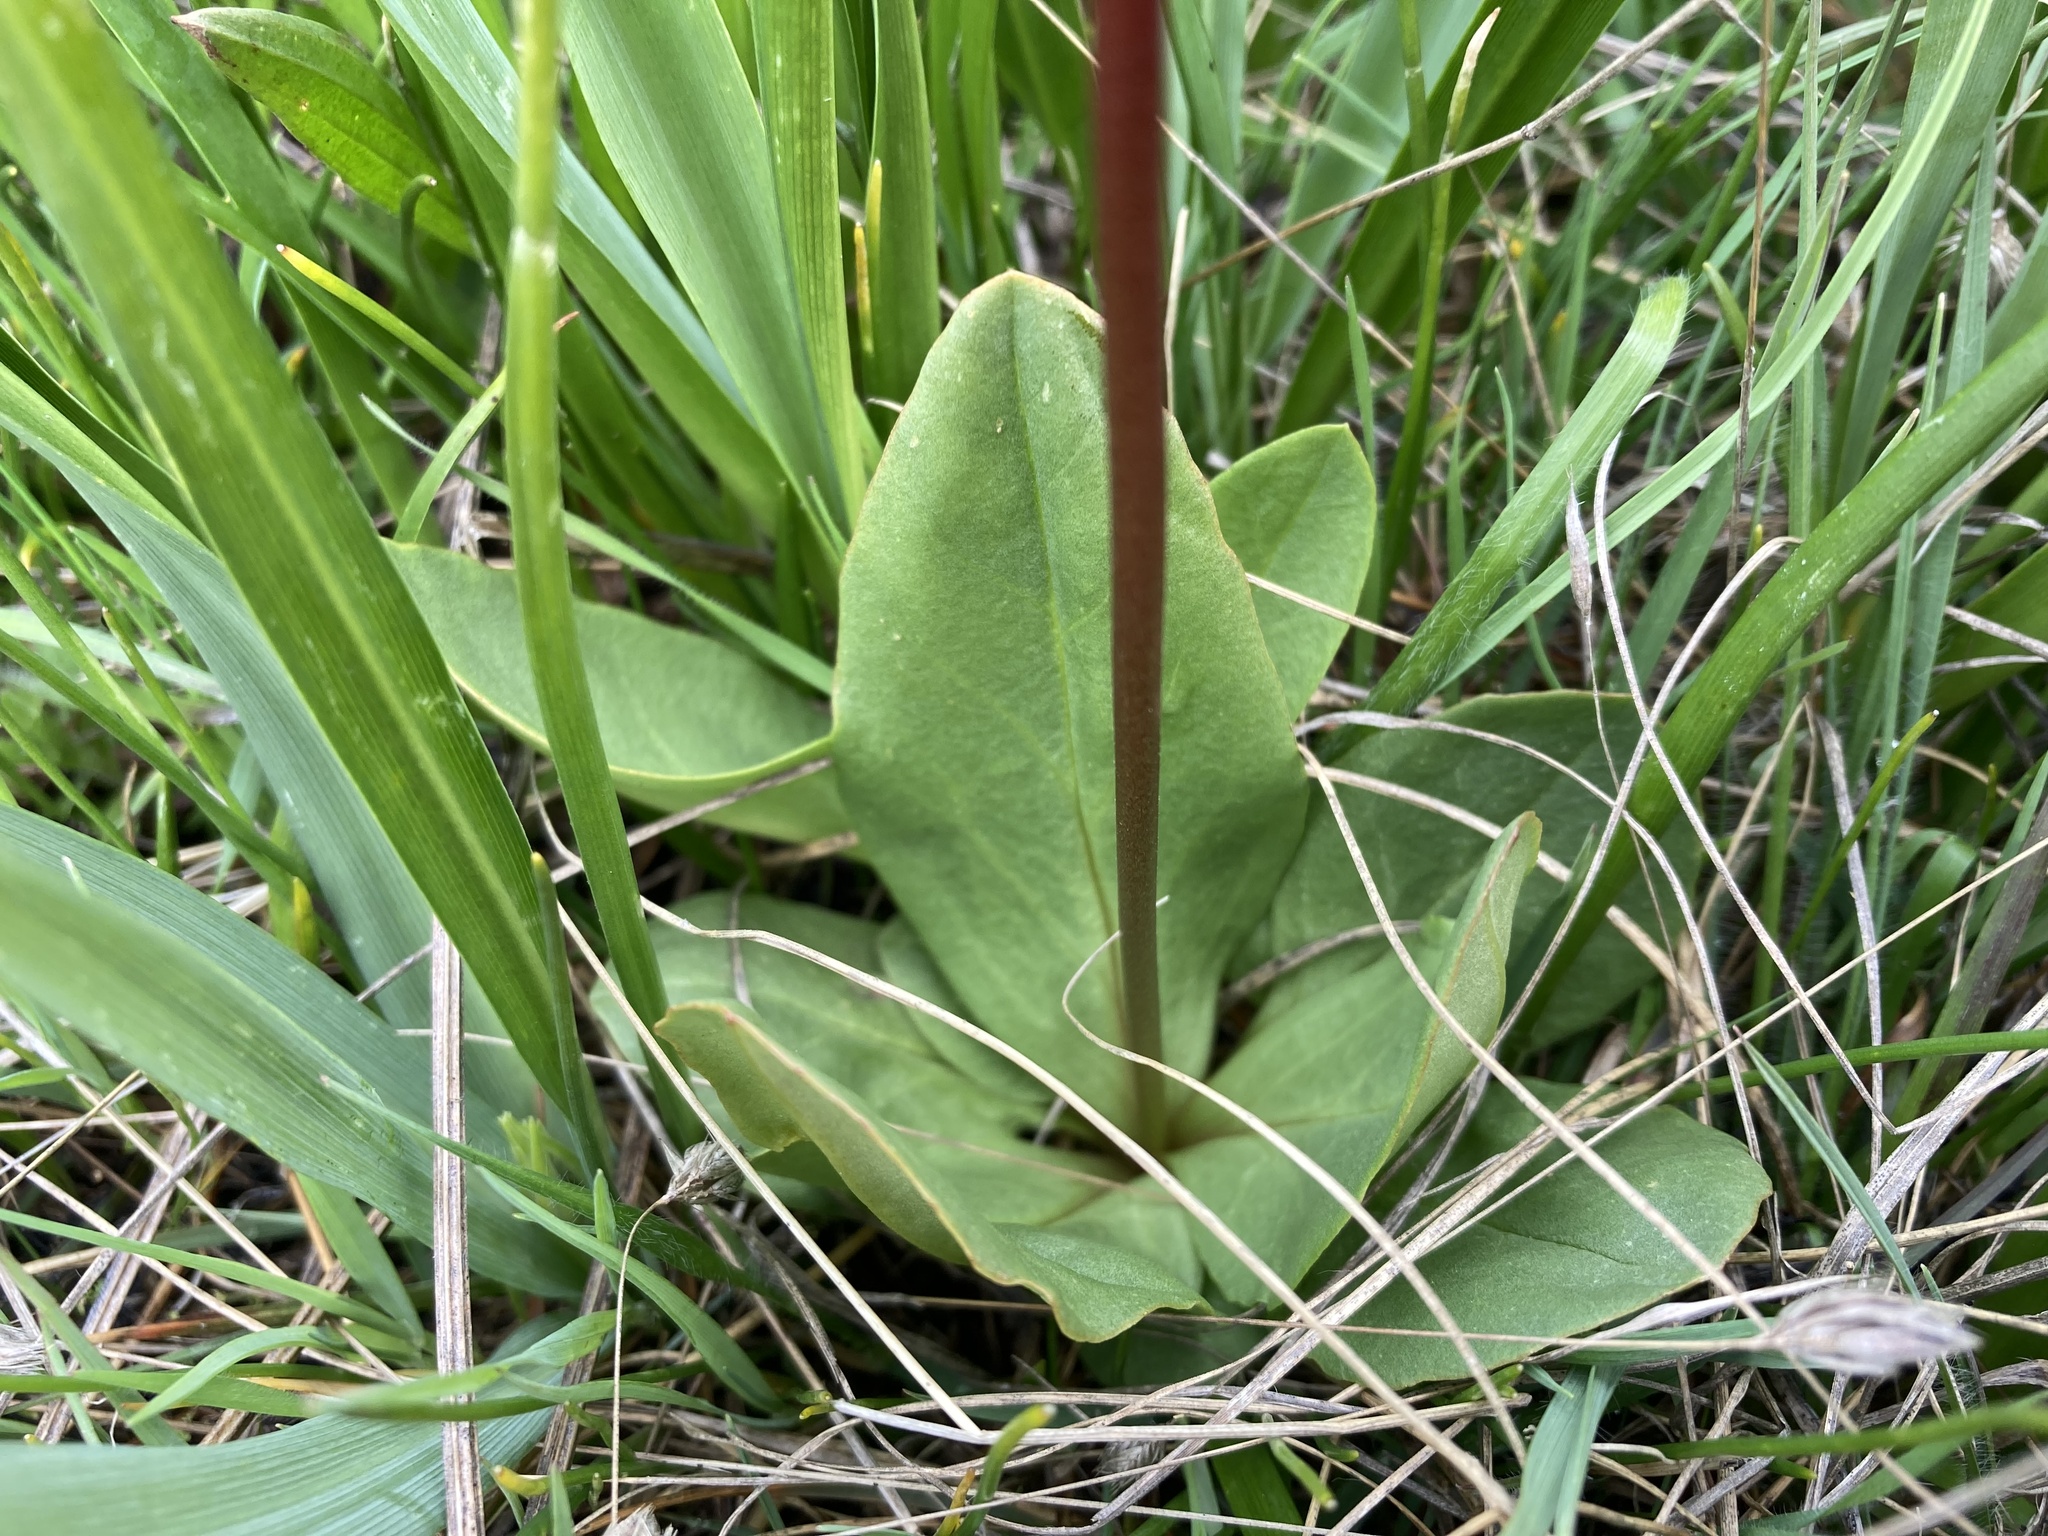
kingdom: Plantae
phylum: Tracheophyta
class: Magnoliopsida
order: Ericales
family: Primulaceae
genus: Dodecatheon
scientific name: Dodecatheon pulchellum
